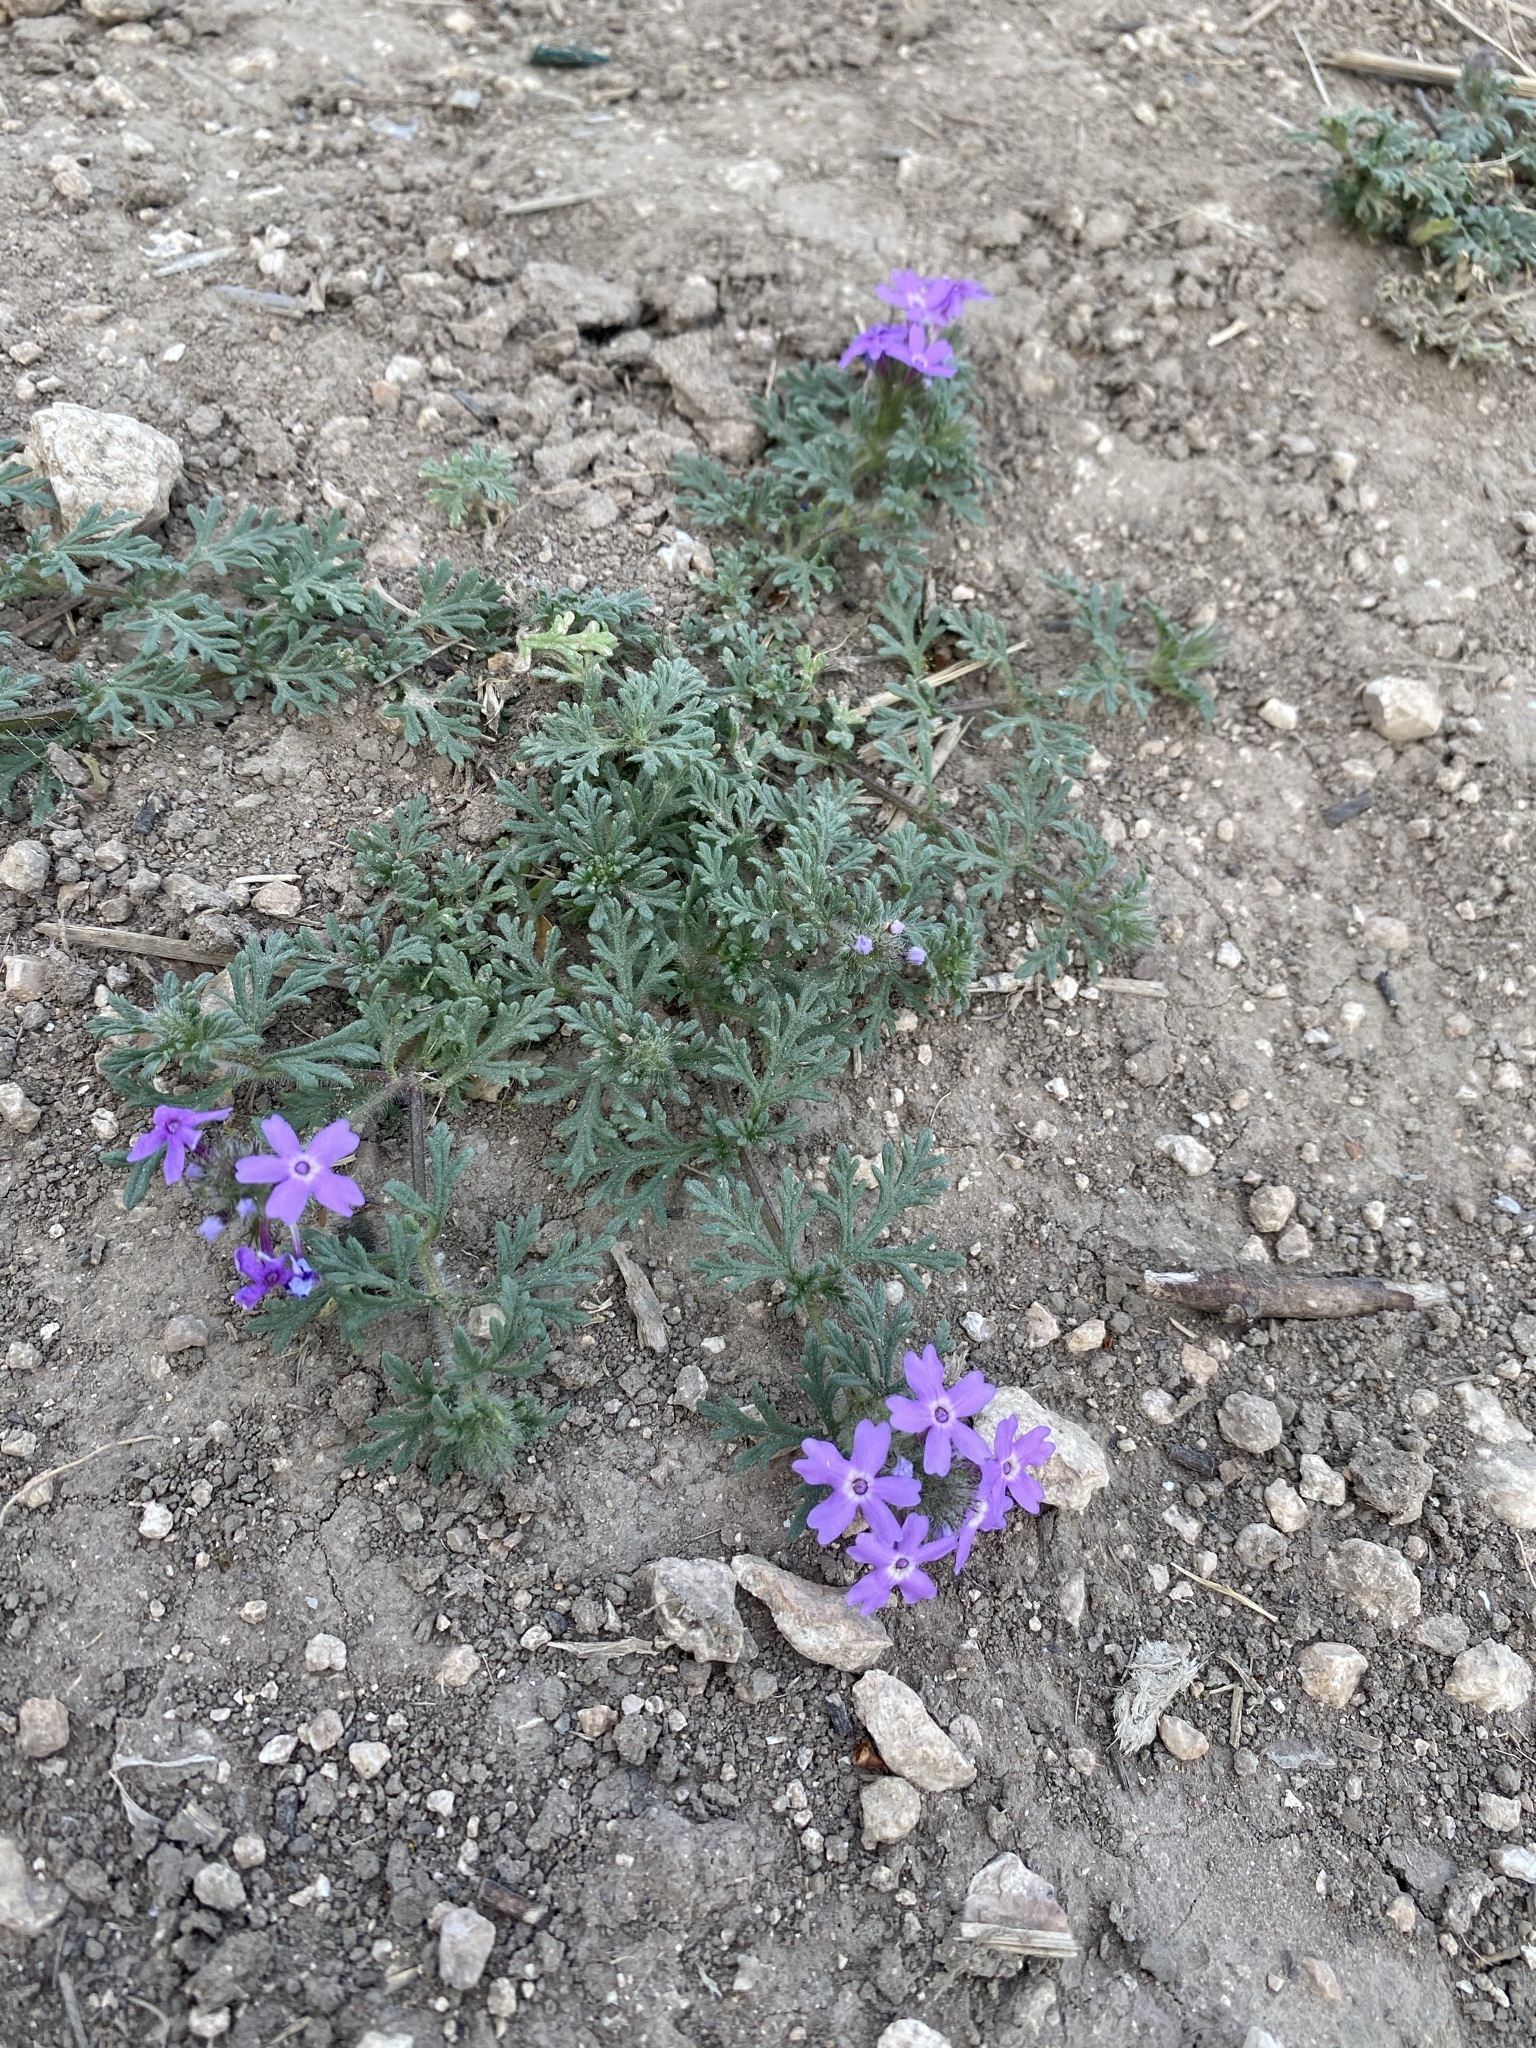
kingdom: Plantae
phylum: Tracheophyta
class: Magnoliopsida
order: Lamiales
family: Verbenaceae
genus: Verbena
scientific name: Verbena bipinnatifida
